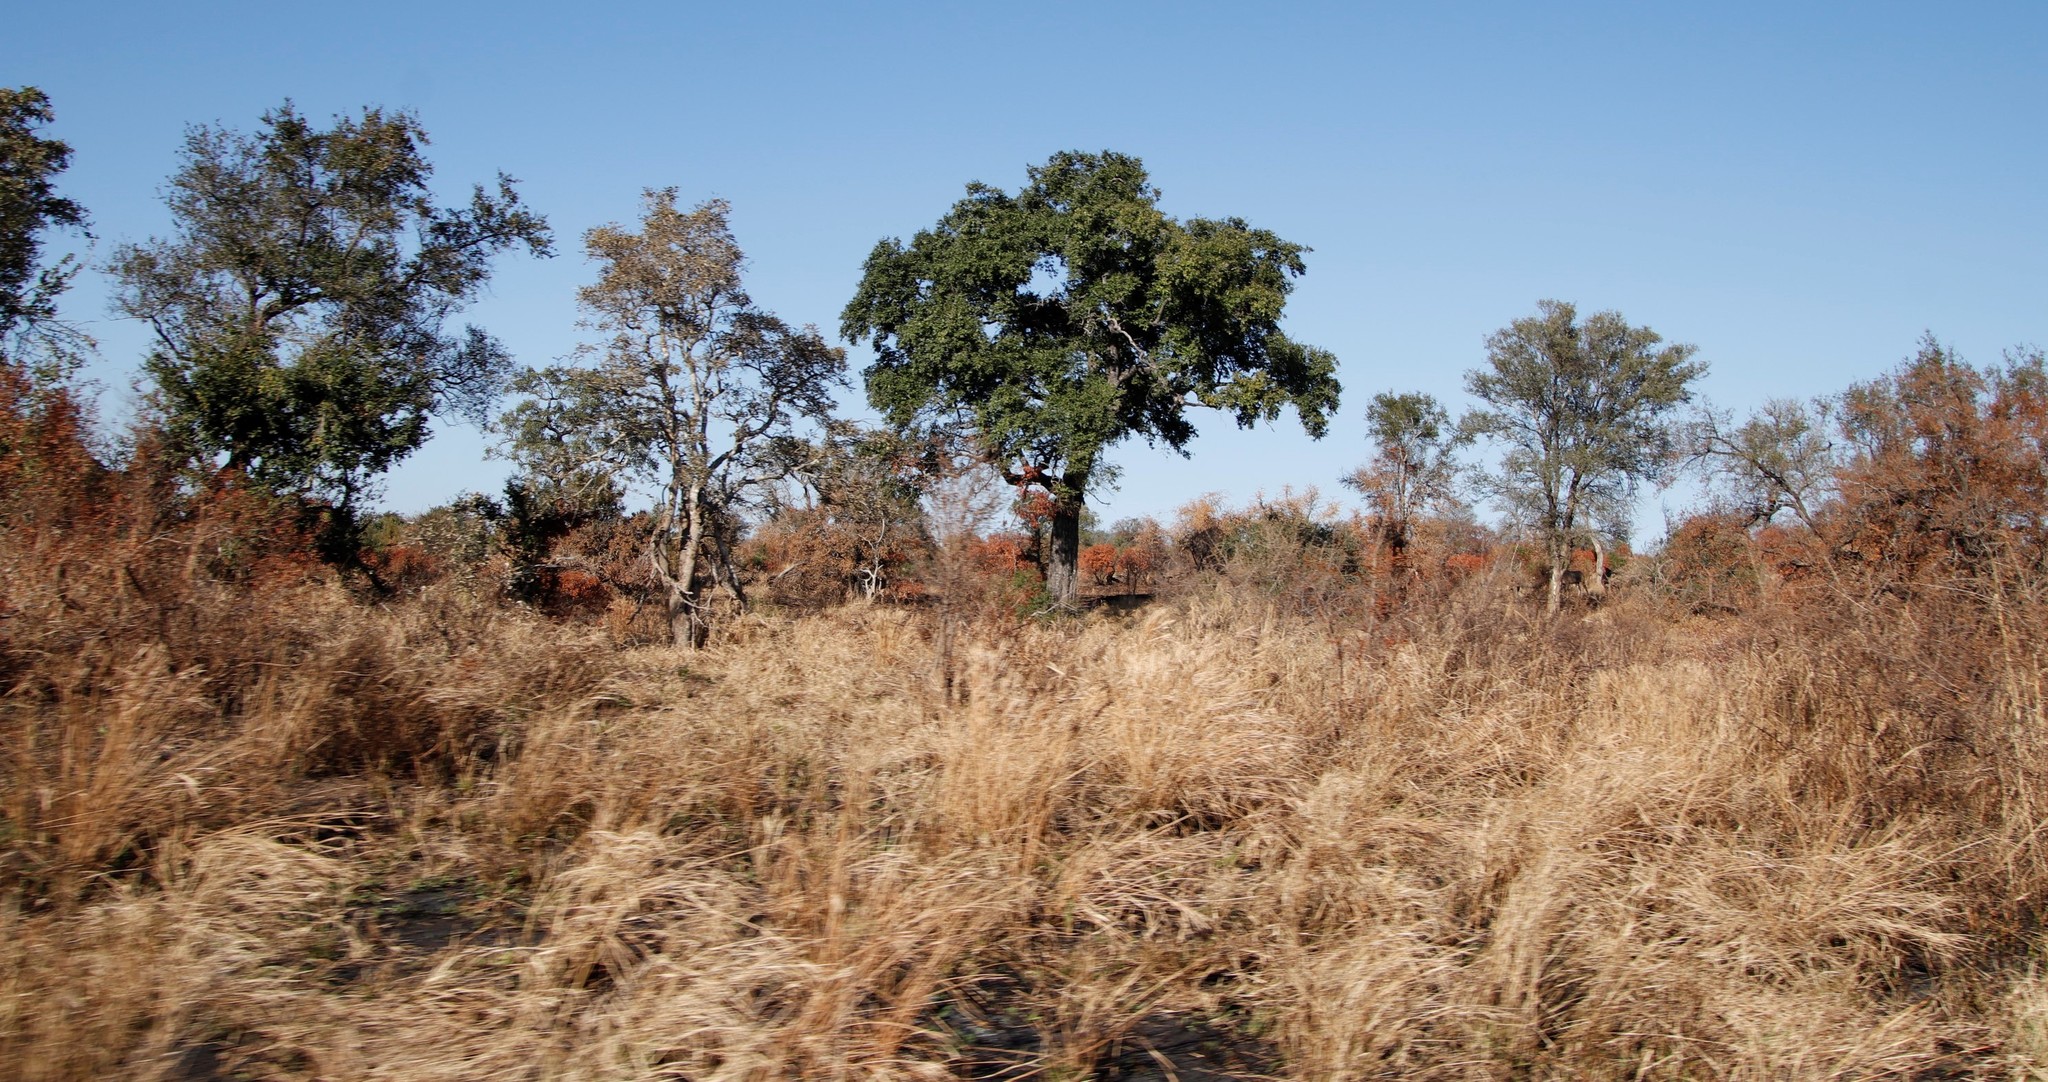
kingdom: Plantae
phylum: Tracheophyta
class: Magnoliopsida
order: Ericales
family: Ebenaceae
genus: Diospyros
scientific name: Diospyros mespiliformis
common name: Ebony diospyros
